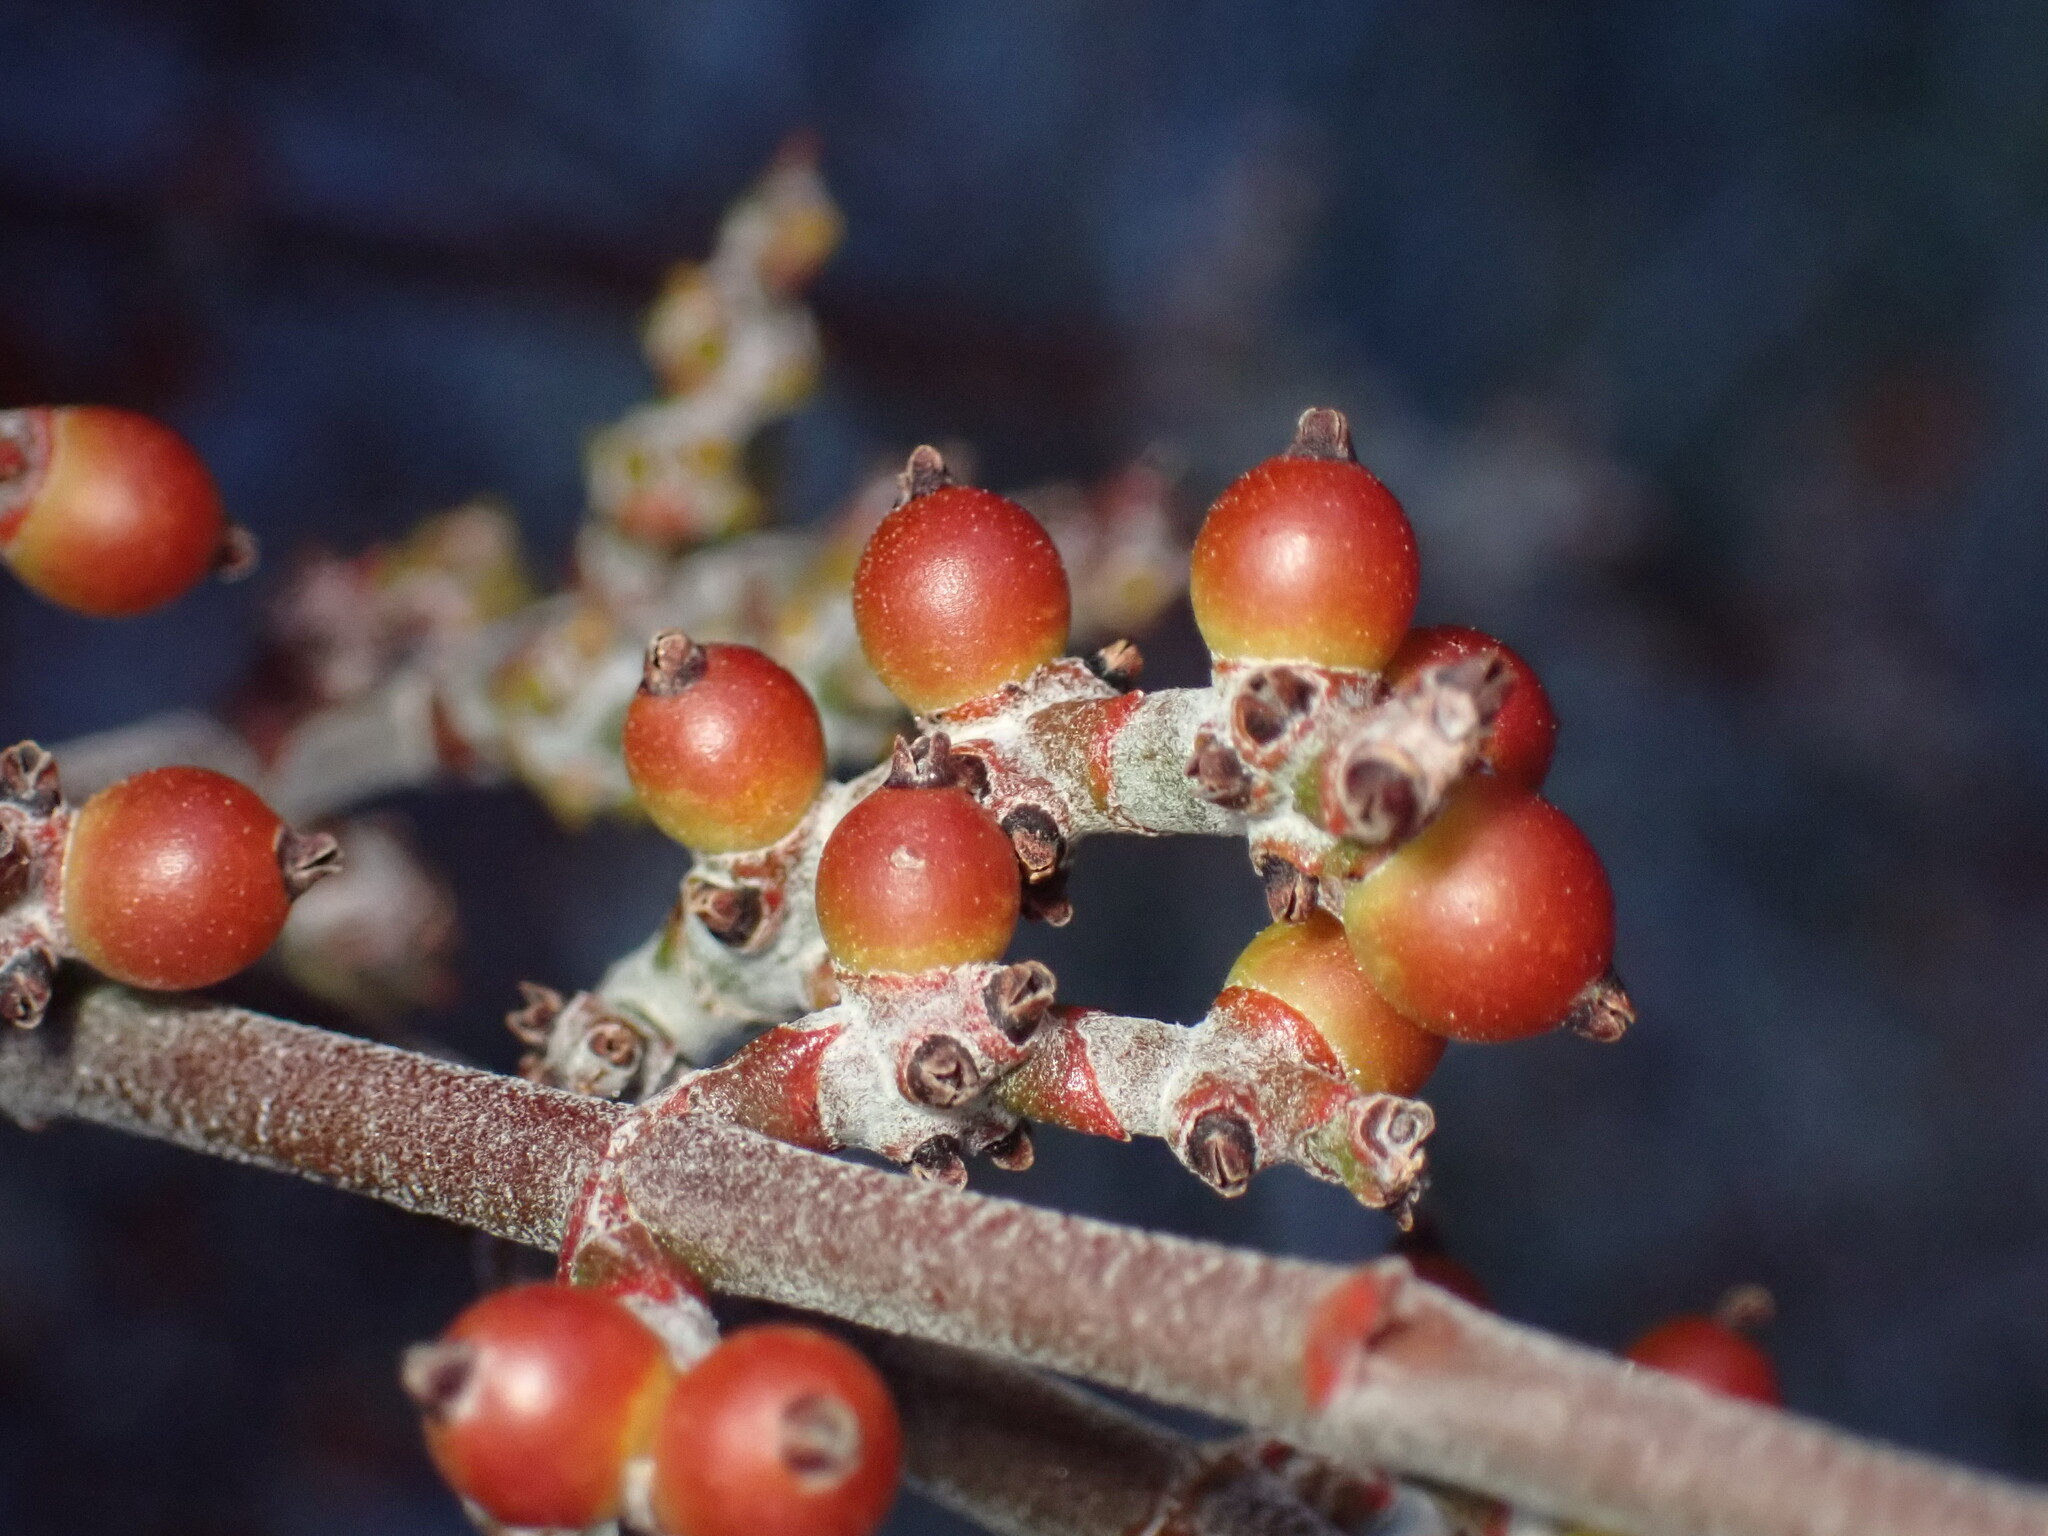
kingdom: Plantae
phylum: Tracheophyta
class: Magnoliopsida
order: Santalales
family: Viscaceae
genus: Phoradendron
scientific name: Phoradendron californicum
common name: Acacia mistletoe
